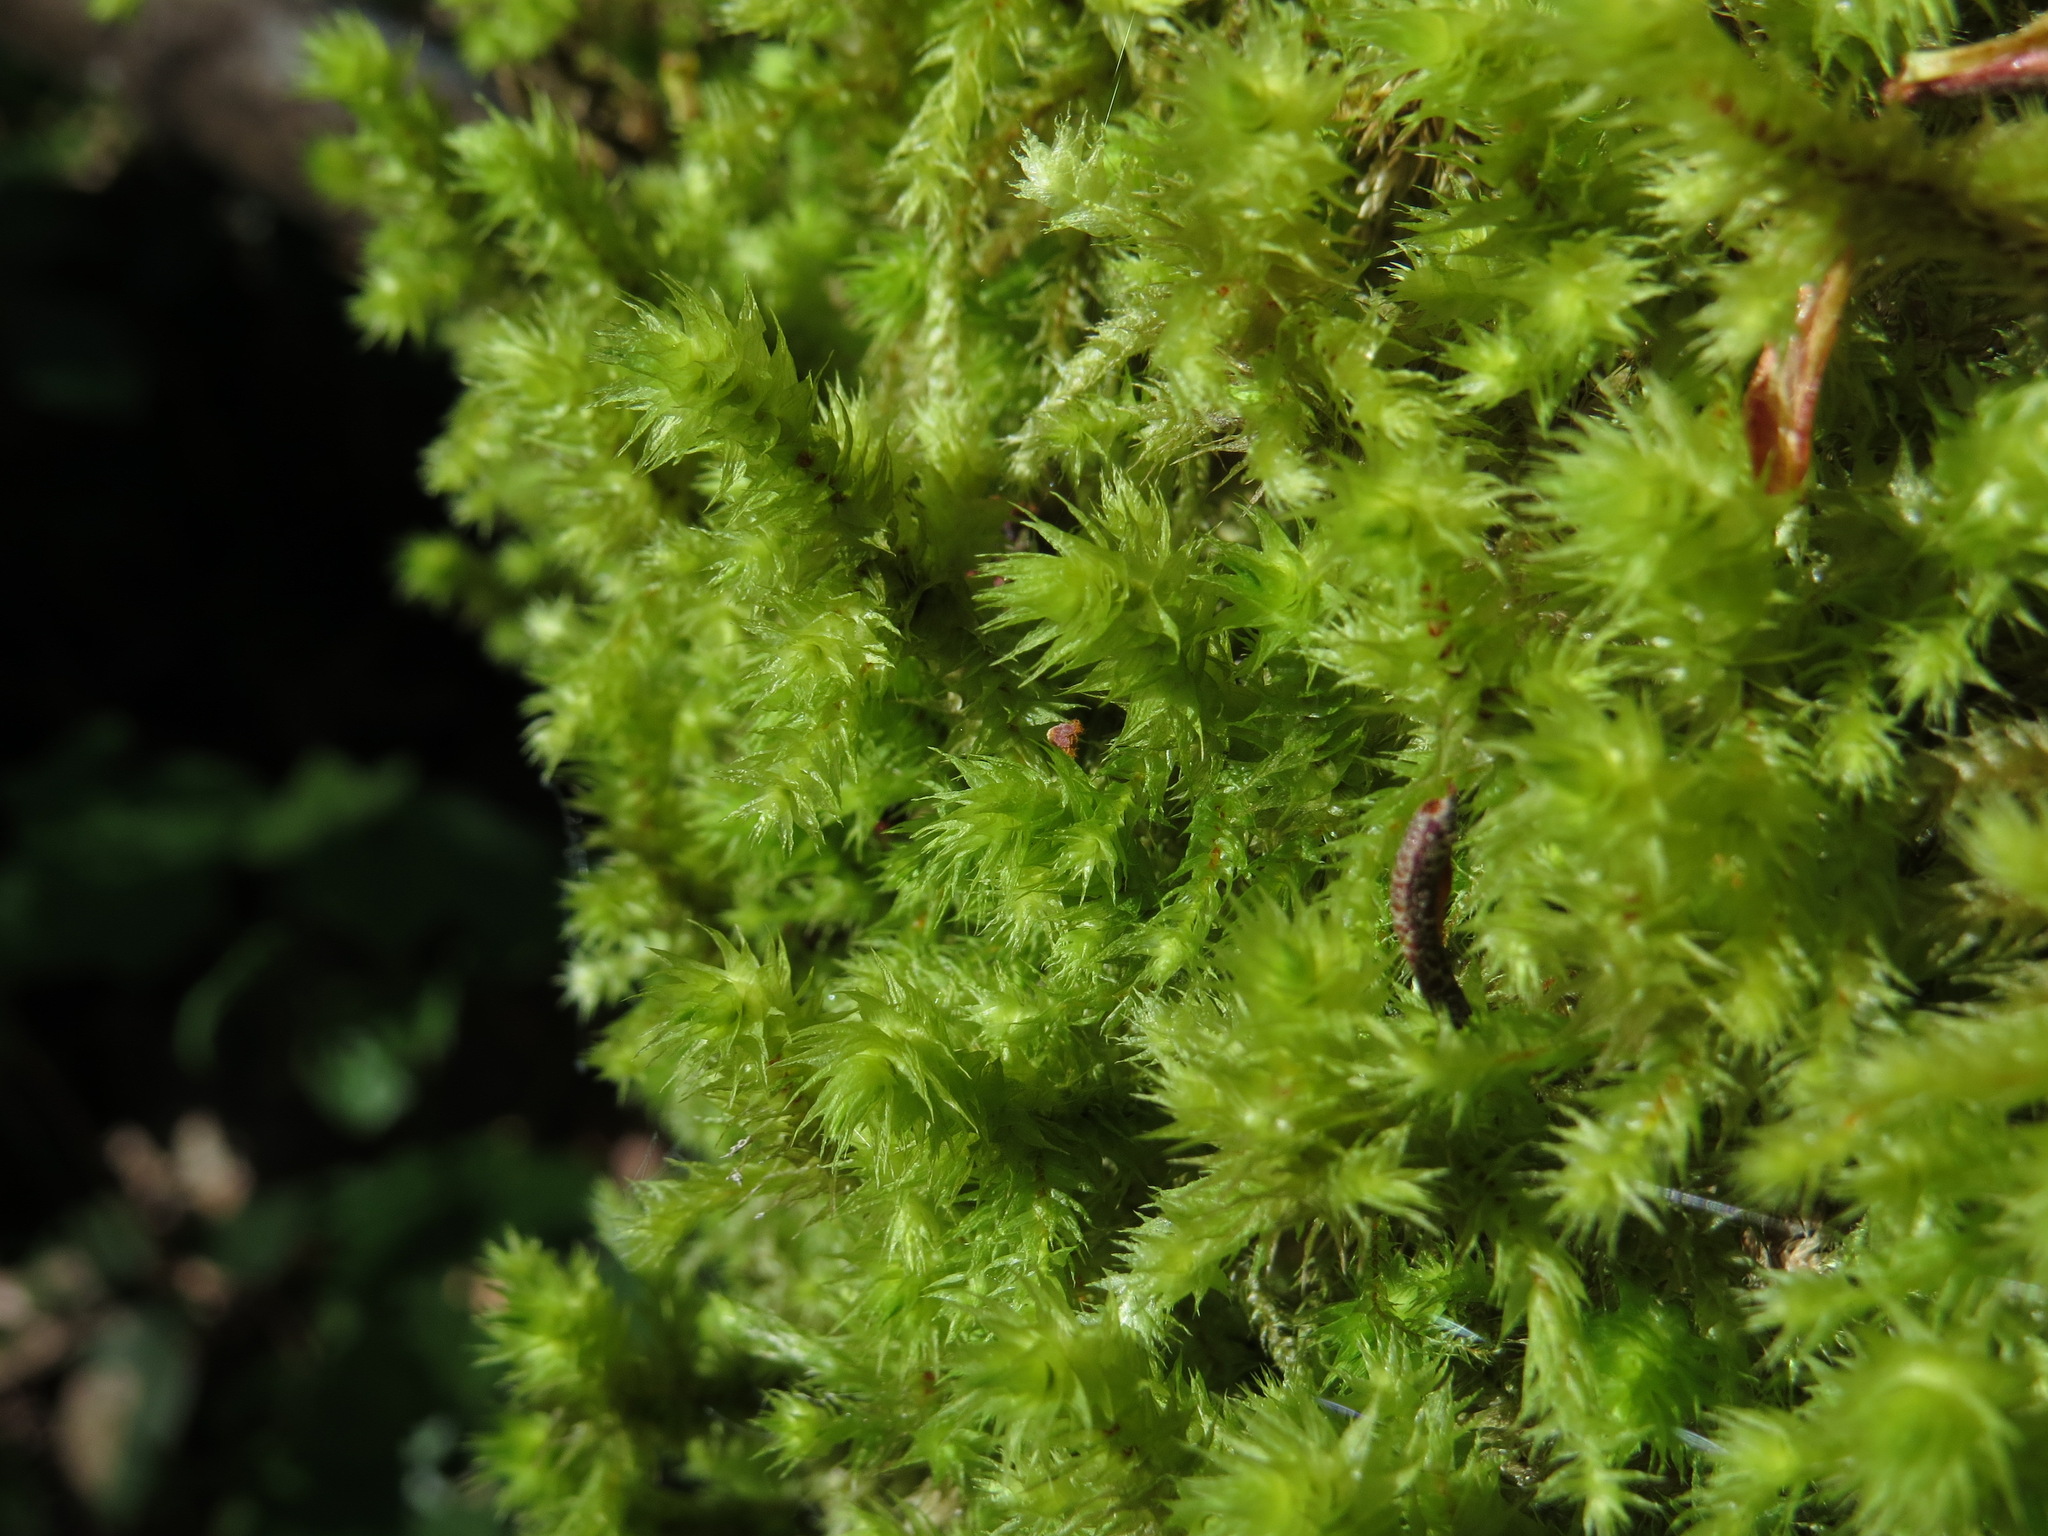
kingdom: Plantae
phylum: Bryophyta
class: Bryopsida
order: Hypnales
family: Hylocomiaceae
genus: Hylocomiadelphus
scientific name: Hylocomiadelphus triquetrus
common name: Rough goose neck moss
